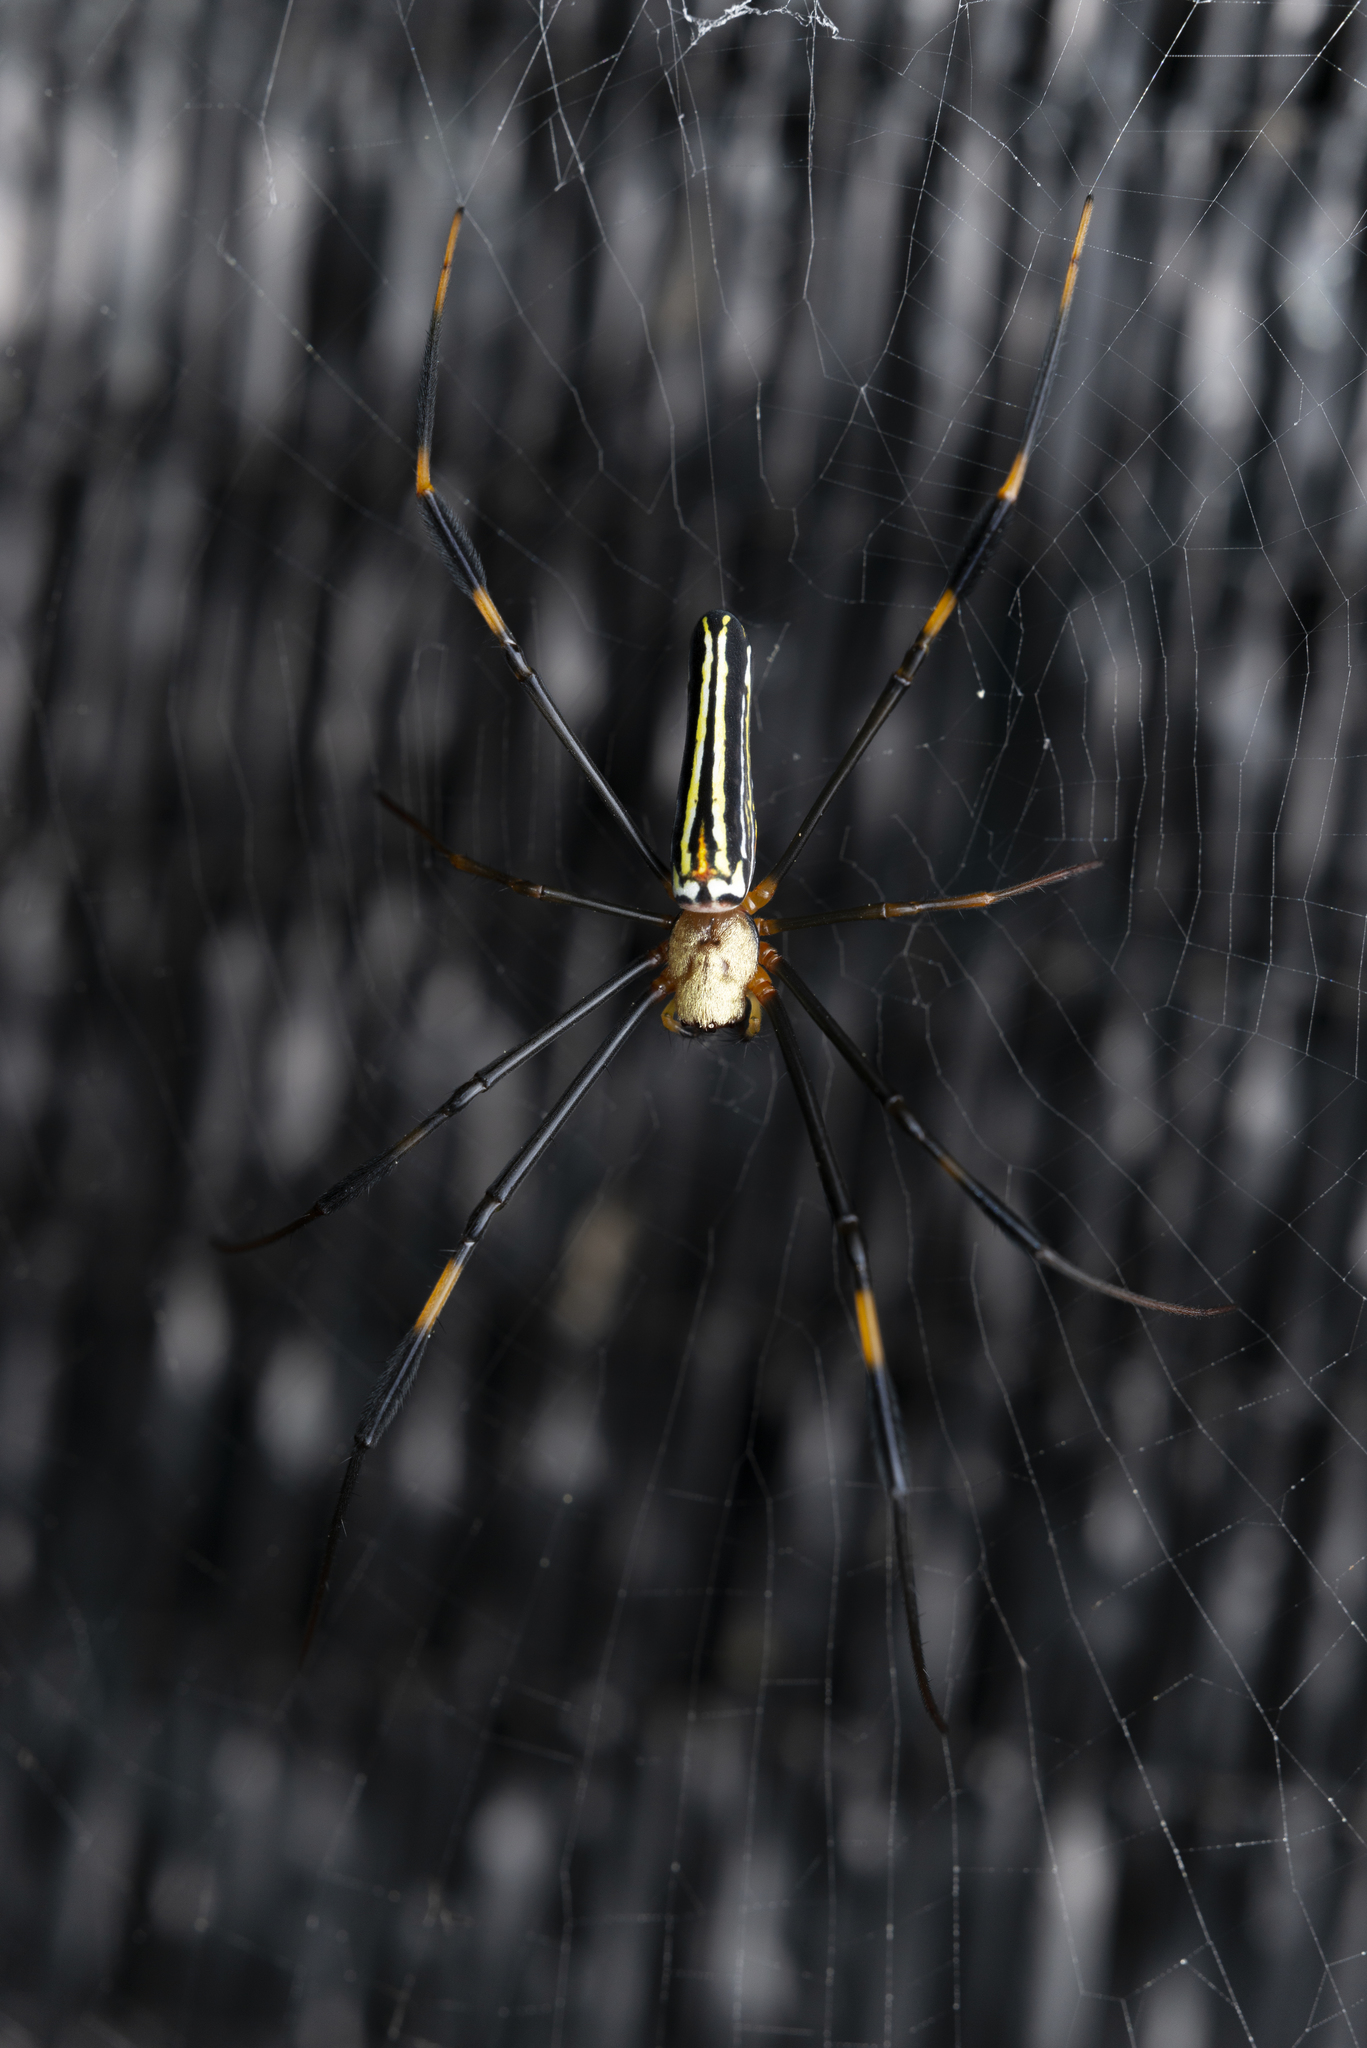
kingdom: Animalia
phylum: Arthropoda
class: Arachnida
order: Araneae
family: Araneidae
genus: Nephila
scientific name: Nephila pilipes
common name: Giant golden orb weaver
